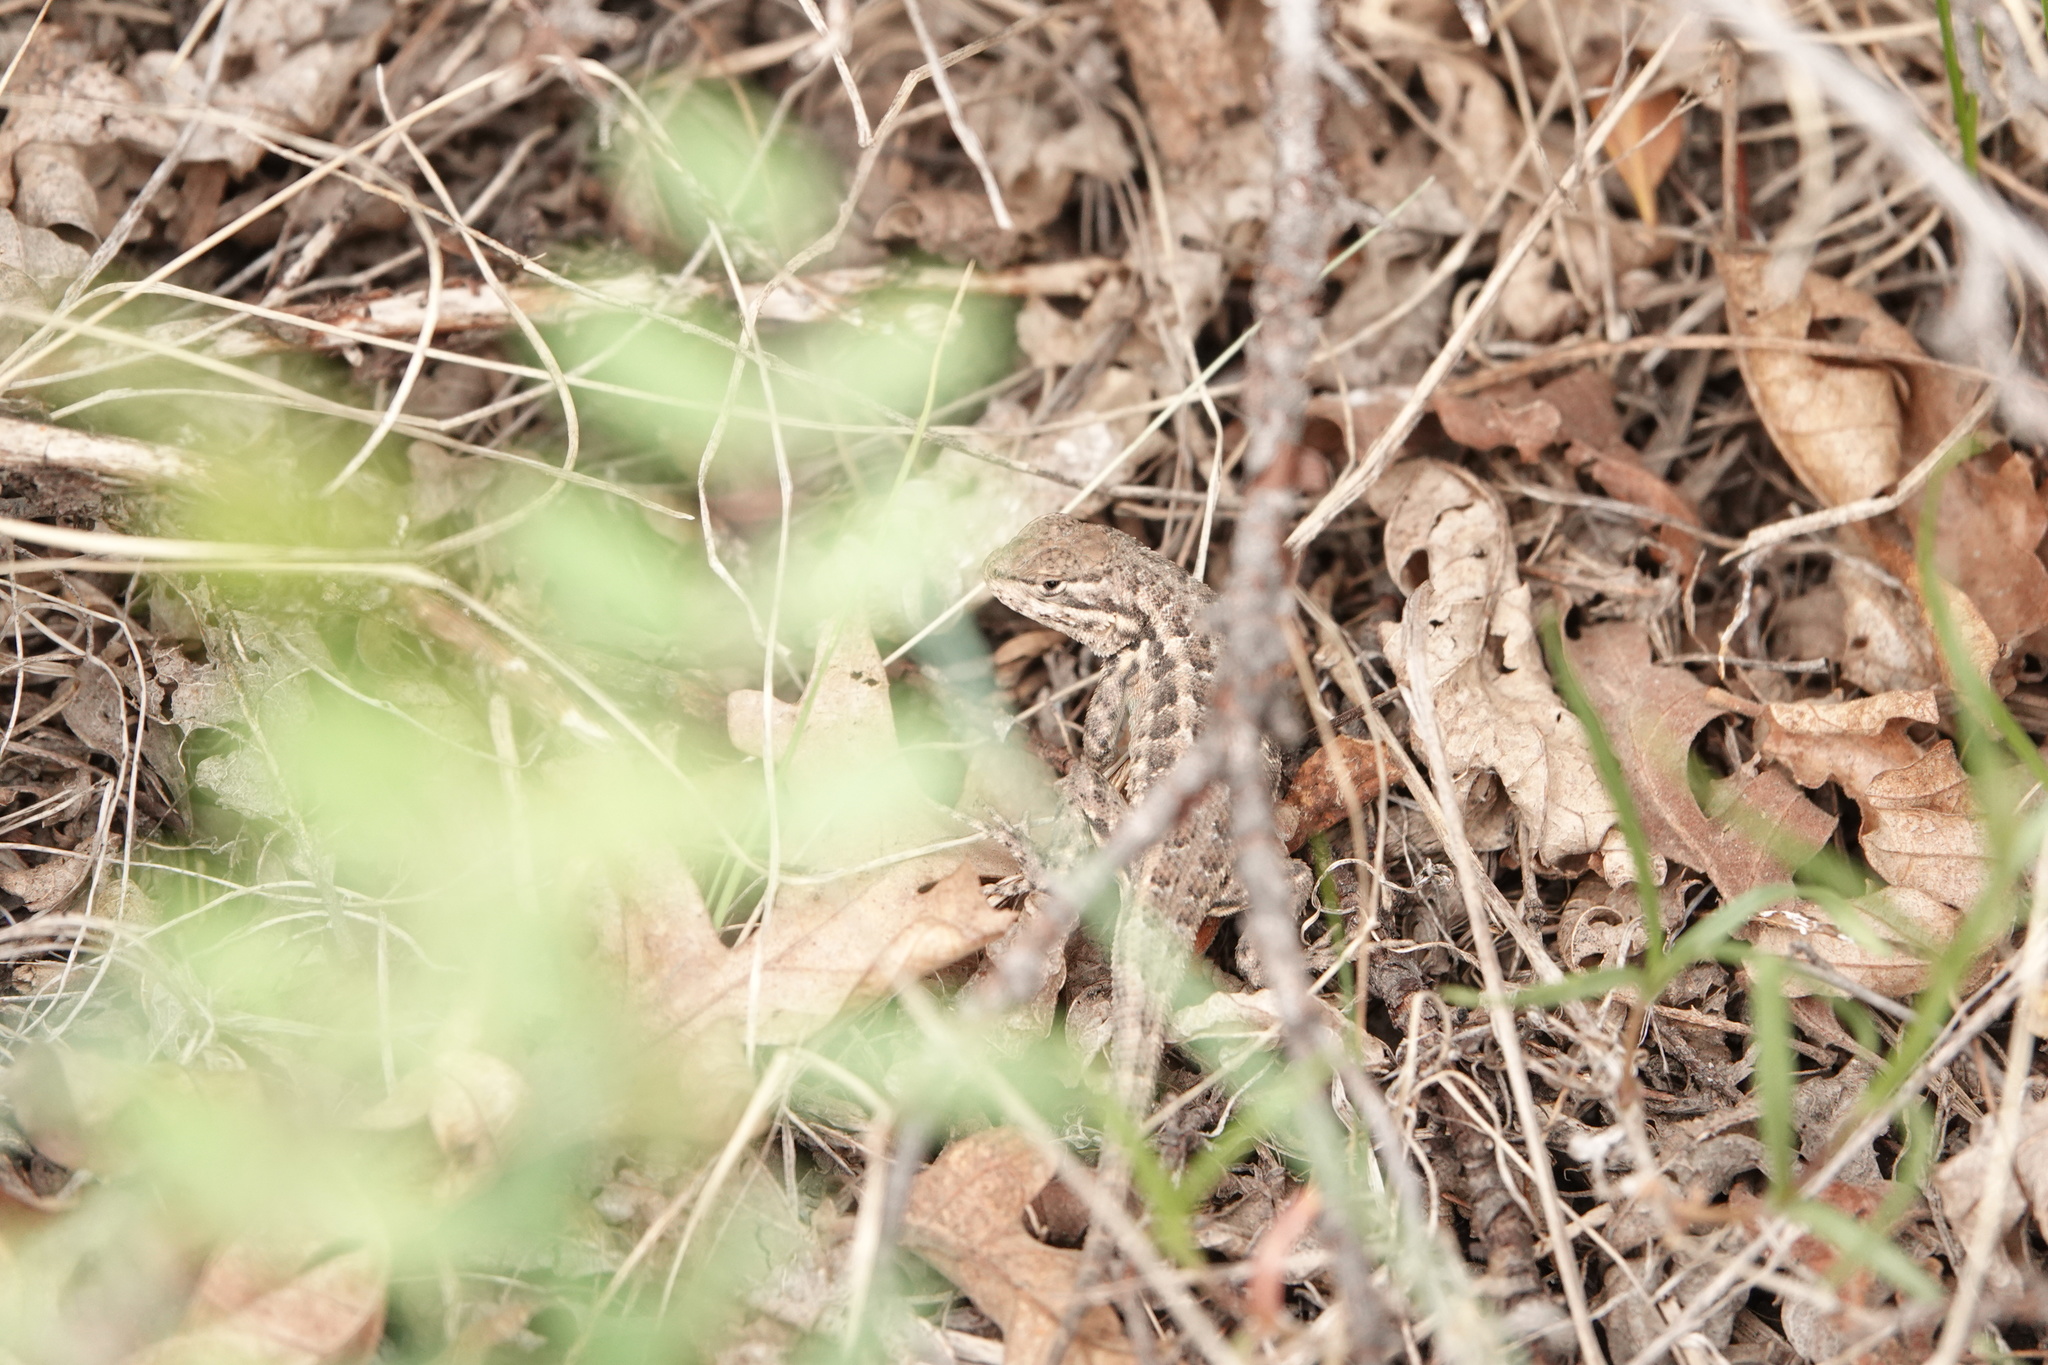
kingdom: Animalia
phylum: Chordata
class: Squamata
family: Phrynosomatidae
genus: Sceloporus
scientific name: Sceloporus graciosus
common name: Sagebrush lizard
